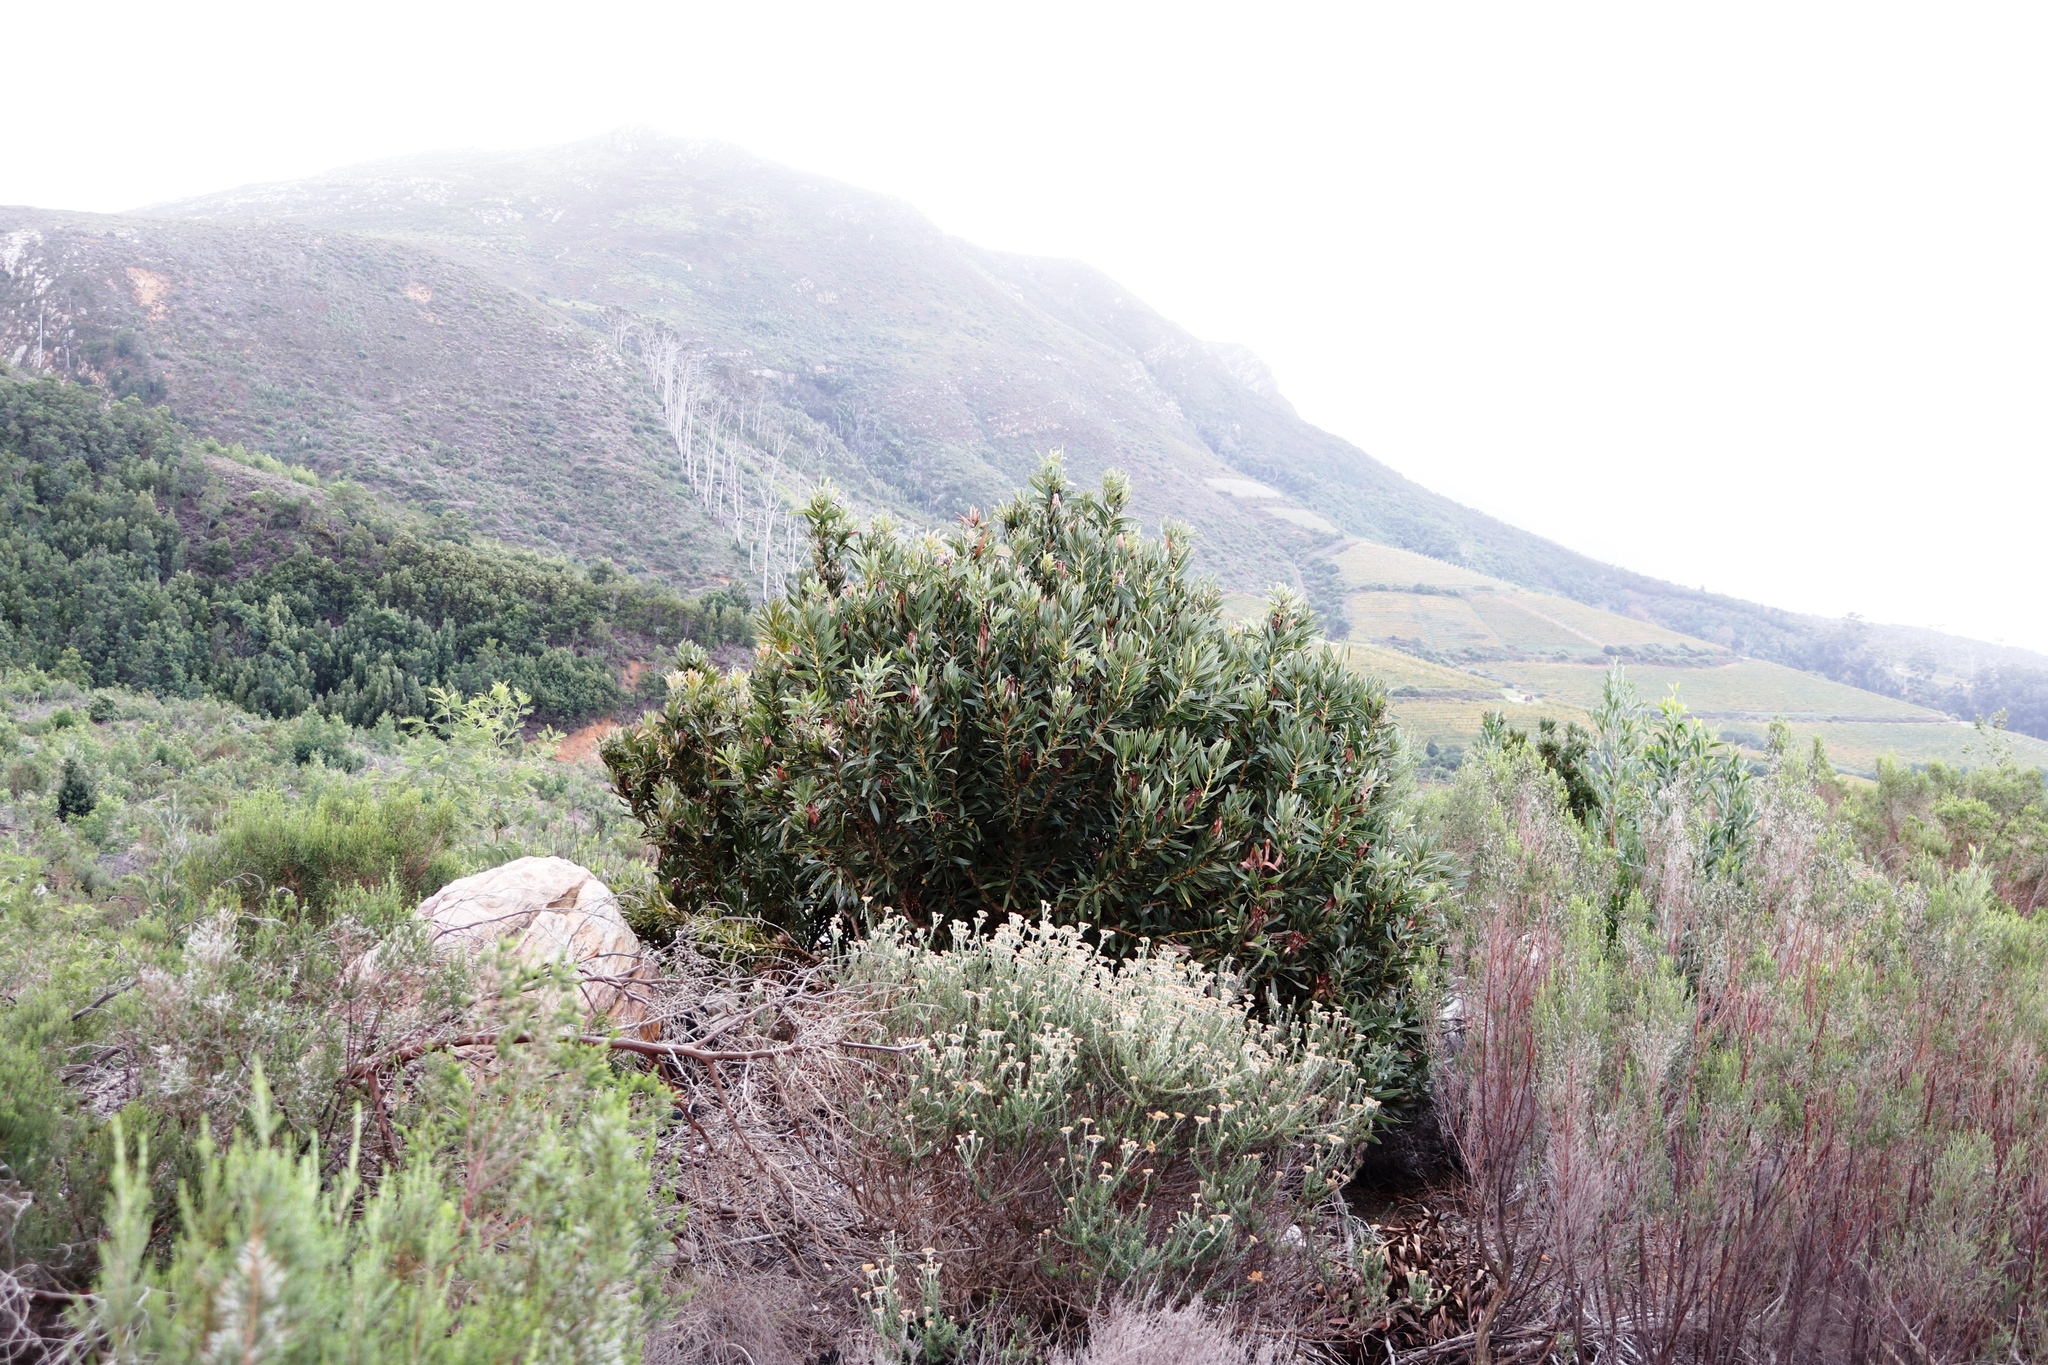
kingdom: Plantae
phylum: Tracheophyta
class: Magnoliopsida
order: Proteales
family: Proteaceae
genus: Protea
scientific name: Protea lepidocarpodendron
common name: Black-bearded protea
